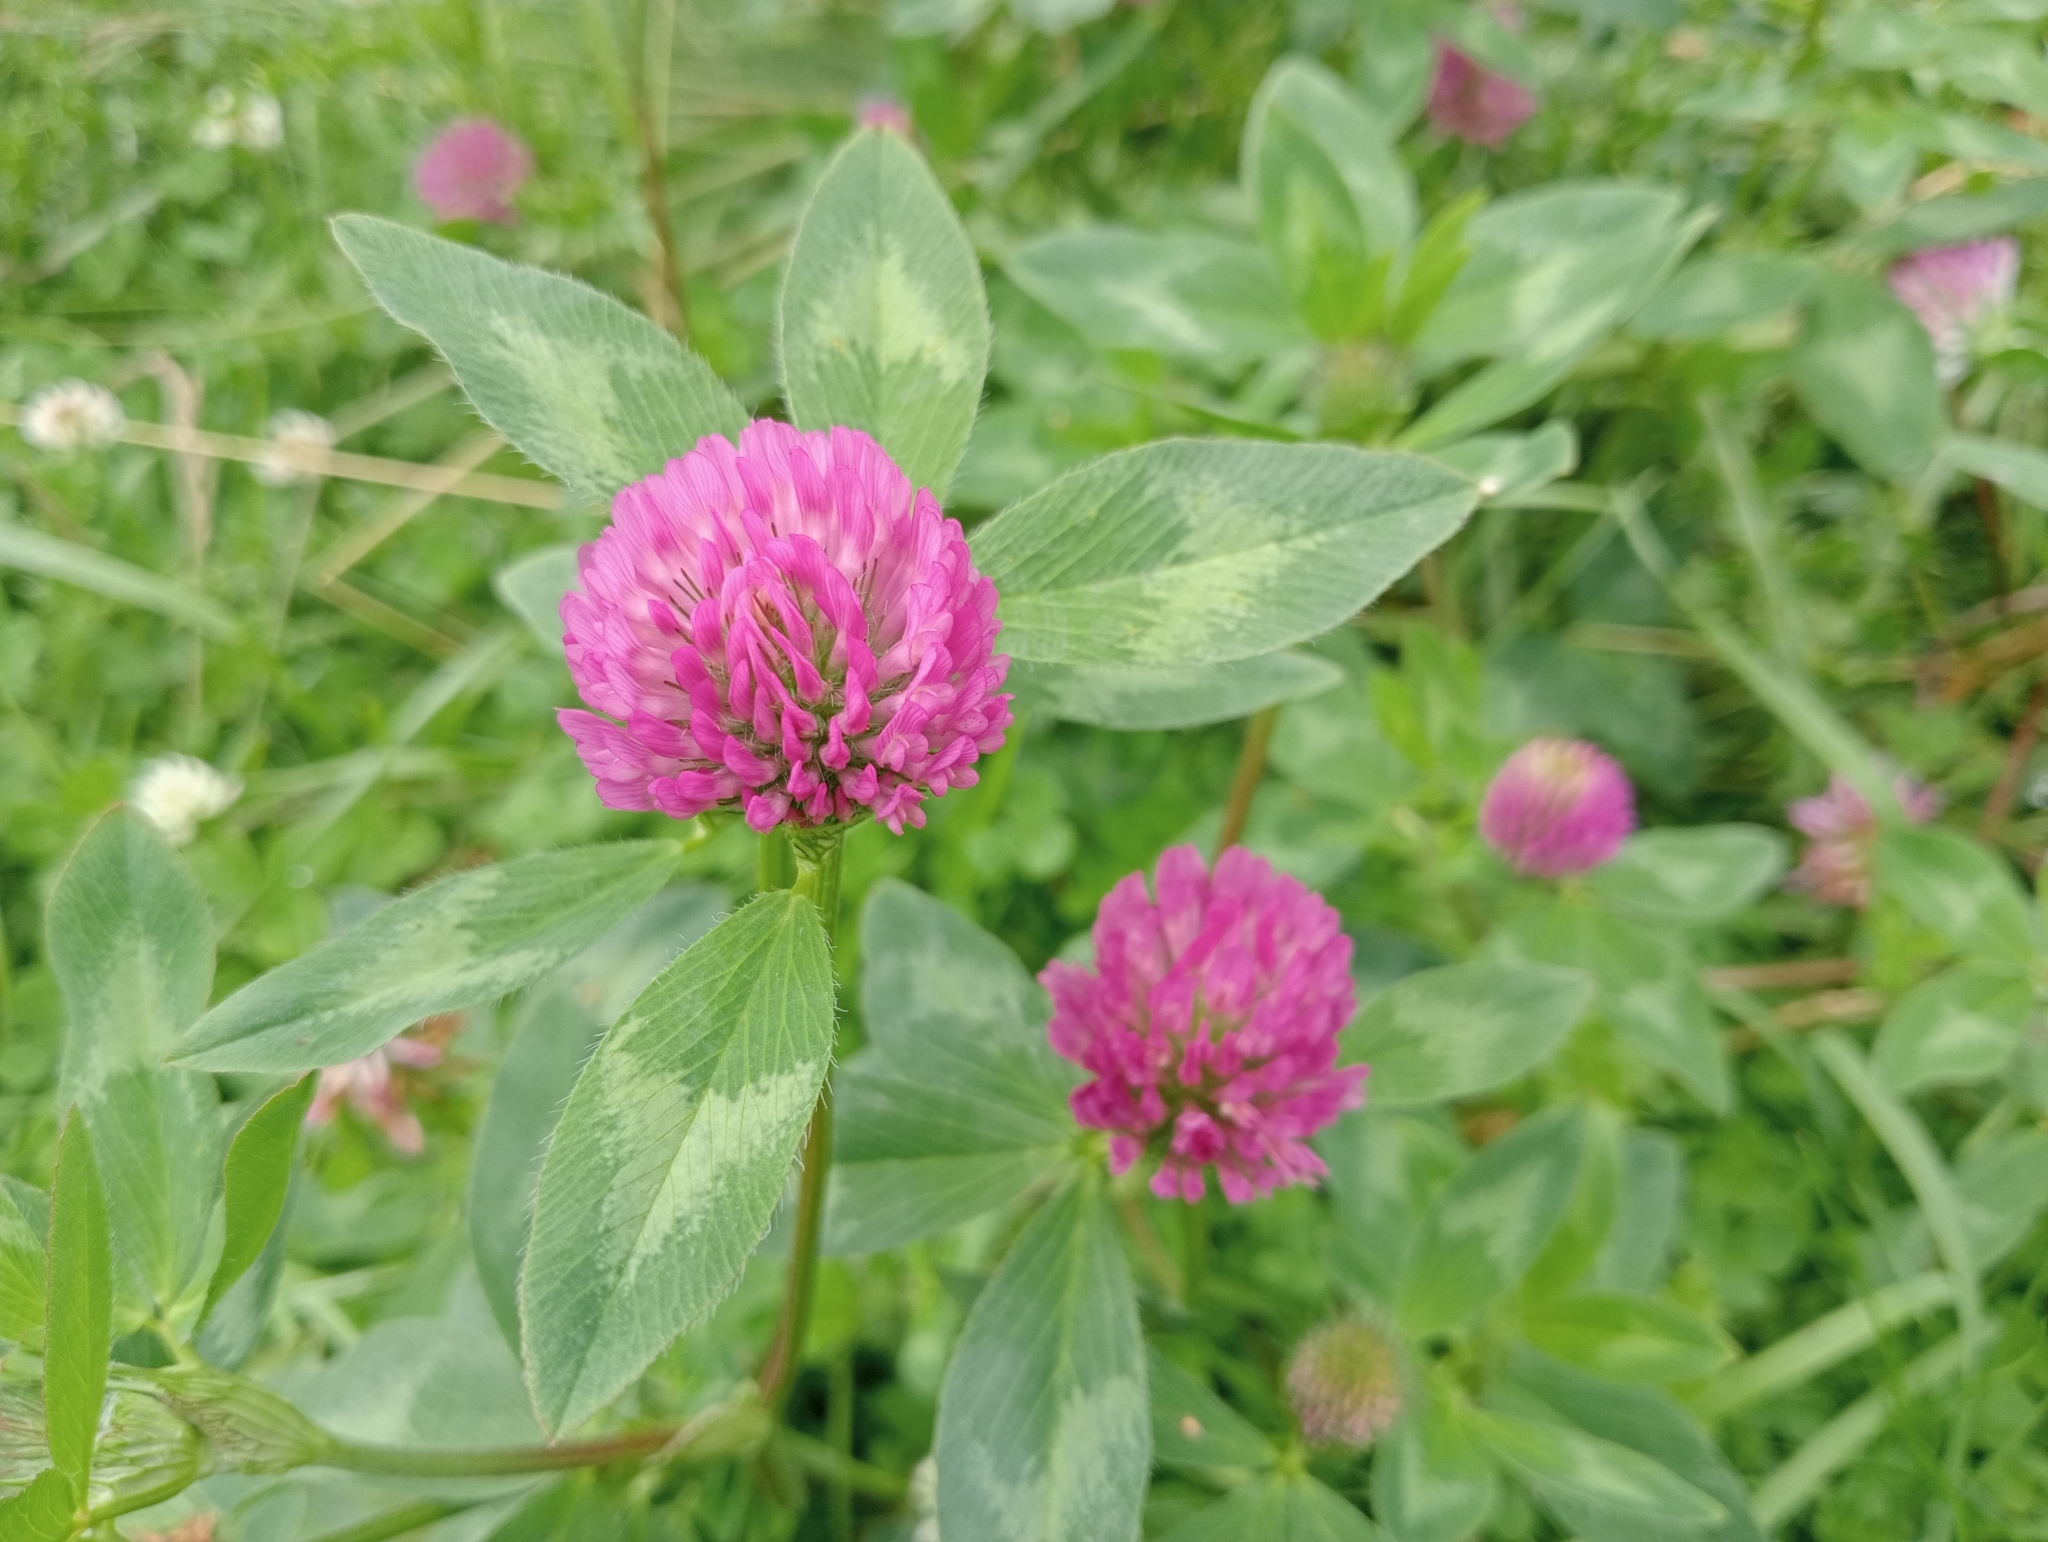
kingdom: Plantae
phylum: Tracheophyta
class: Magnoliopsida
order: Fabales
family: Fabaceae
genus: Trifolium
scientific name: Trifolium pratense
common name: Red clover
